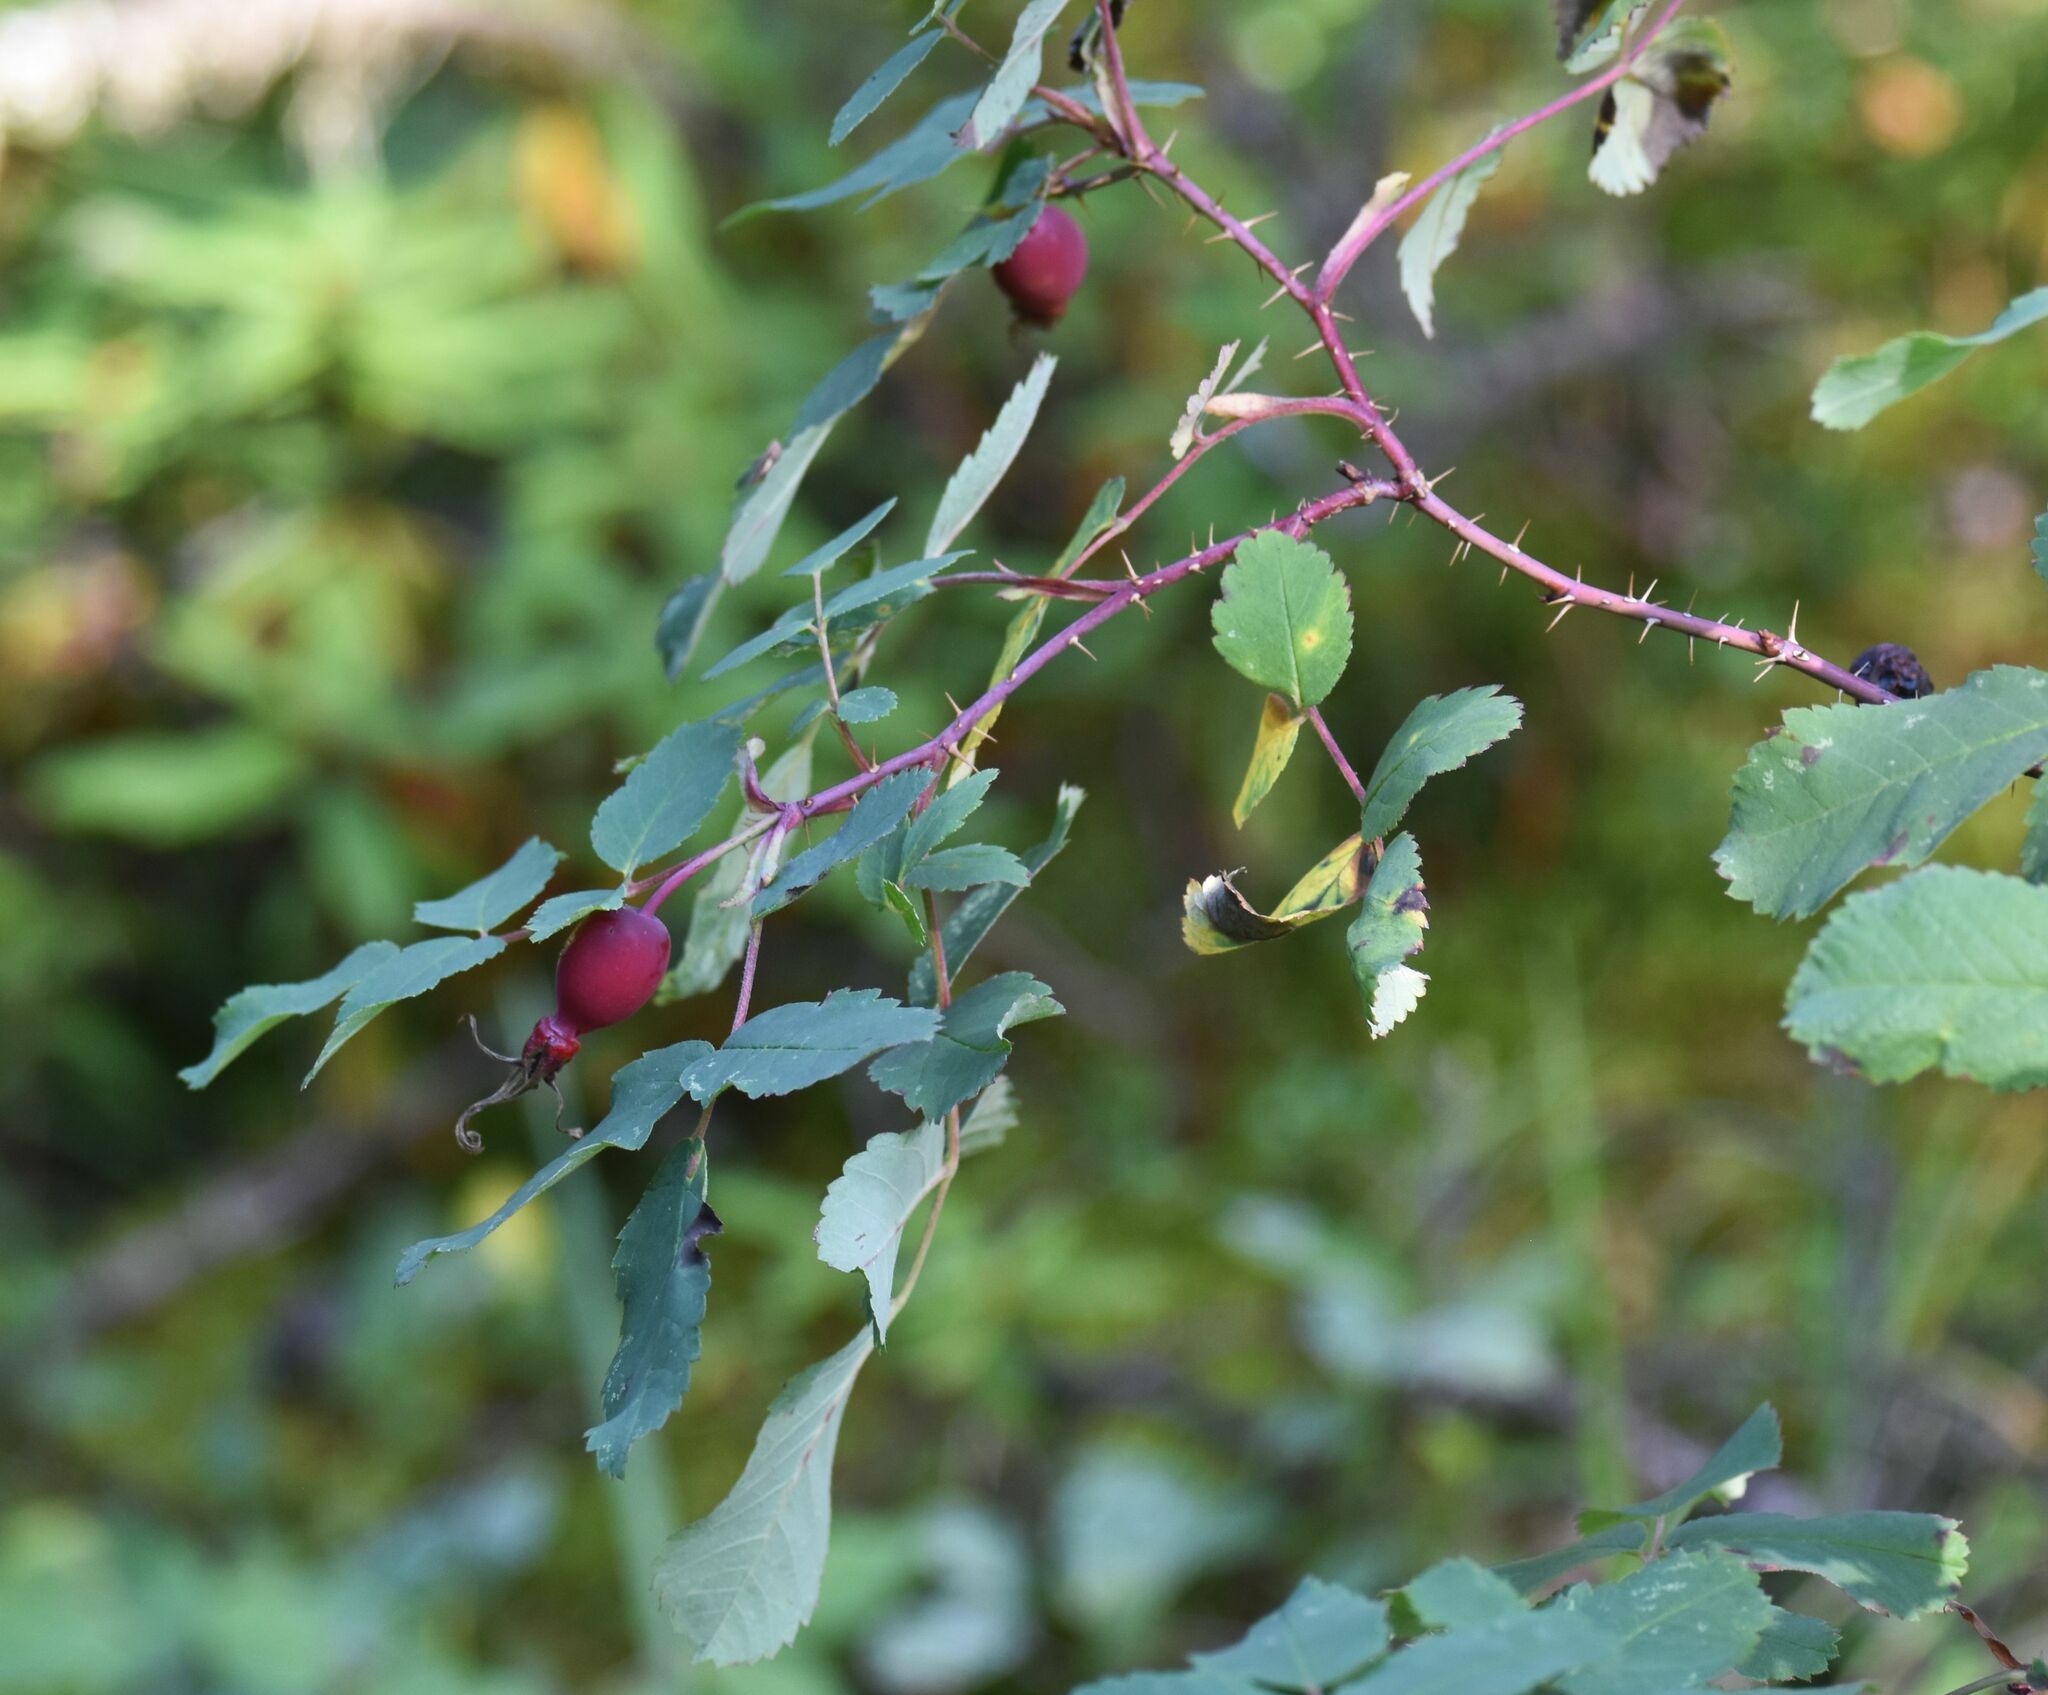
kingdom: Plantae
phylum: Tracheophyta
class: Magnoliopsida
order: Rosales
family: Rosaceae
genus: Rosa
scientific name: Rosa acicularis
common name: Prickly rose
